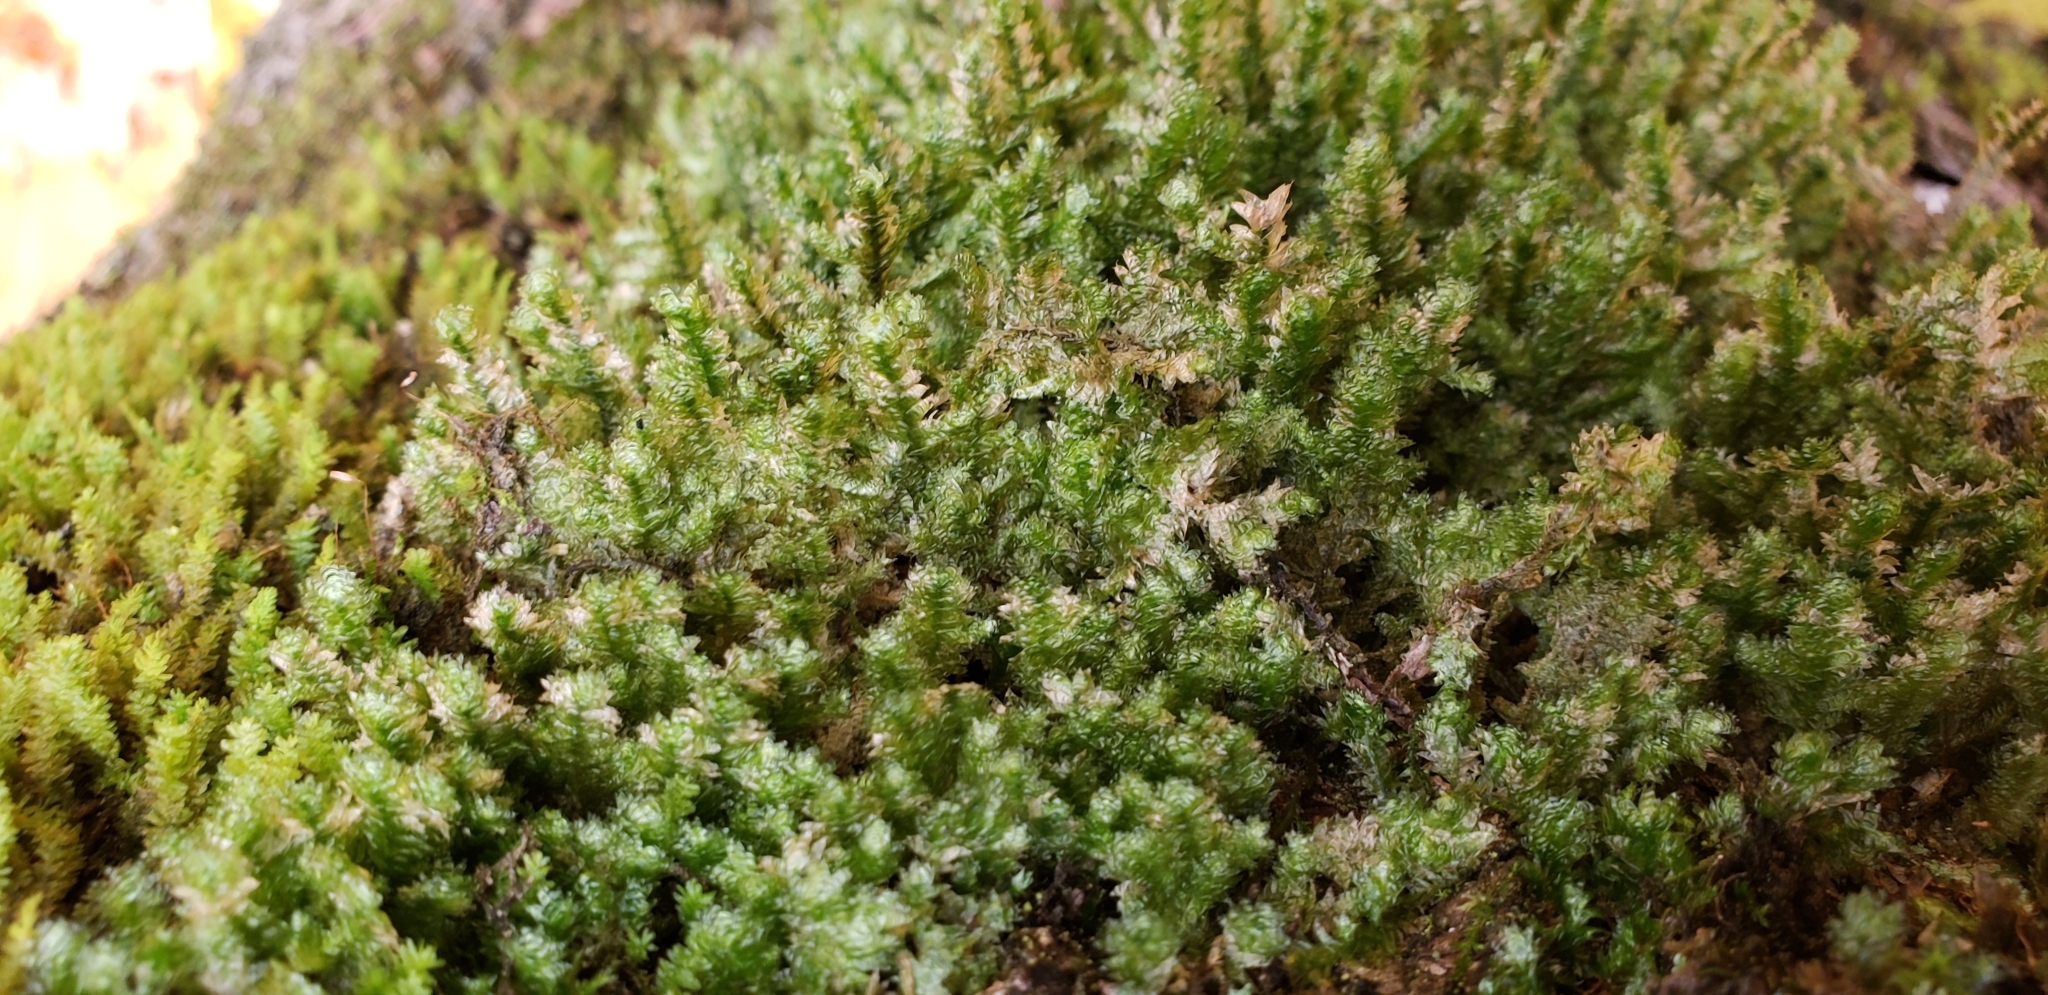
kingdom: Plantae
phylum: Bryophyta
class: Bryopsida
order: Hypnales
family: Neckeraceae
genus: Neckera
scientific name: Neckera pennata
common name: Feathery neckera
